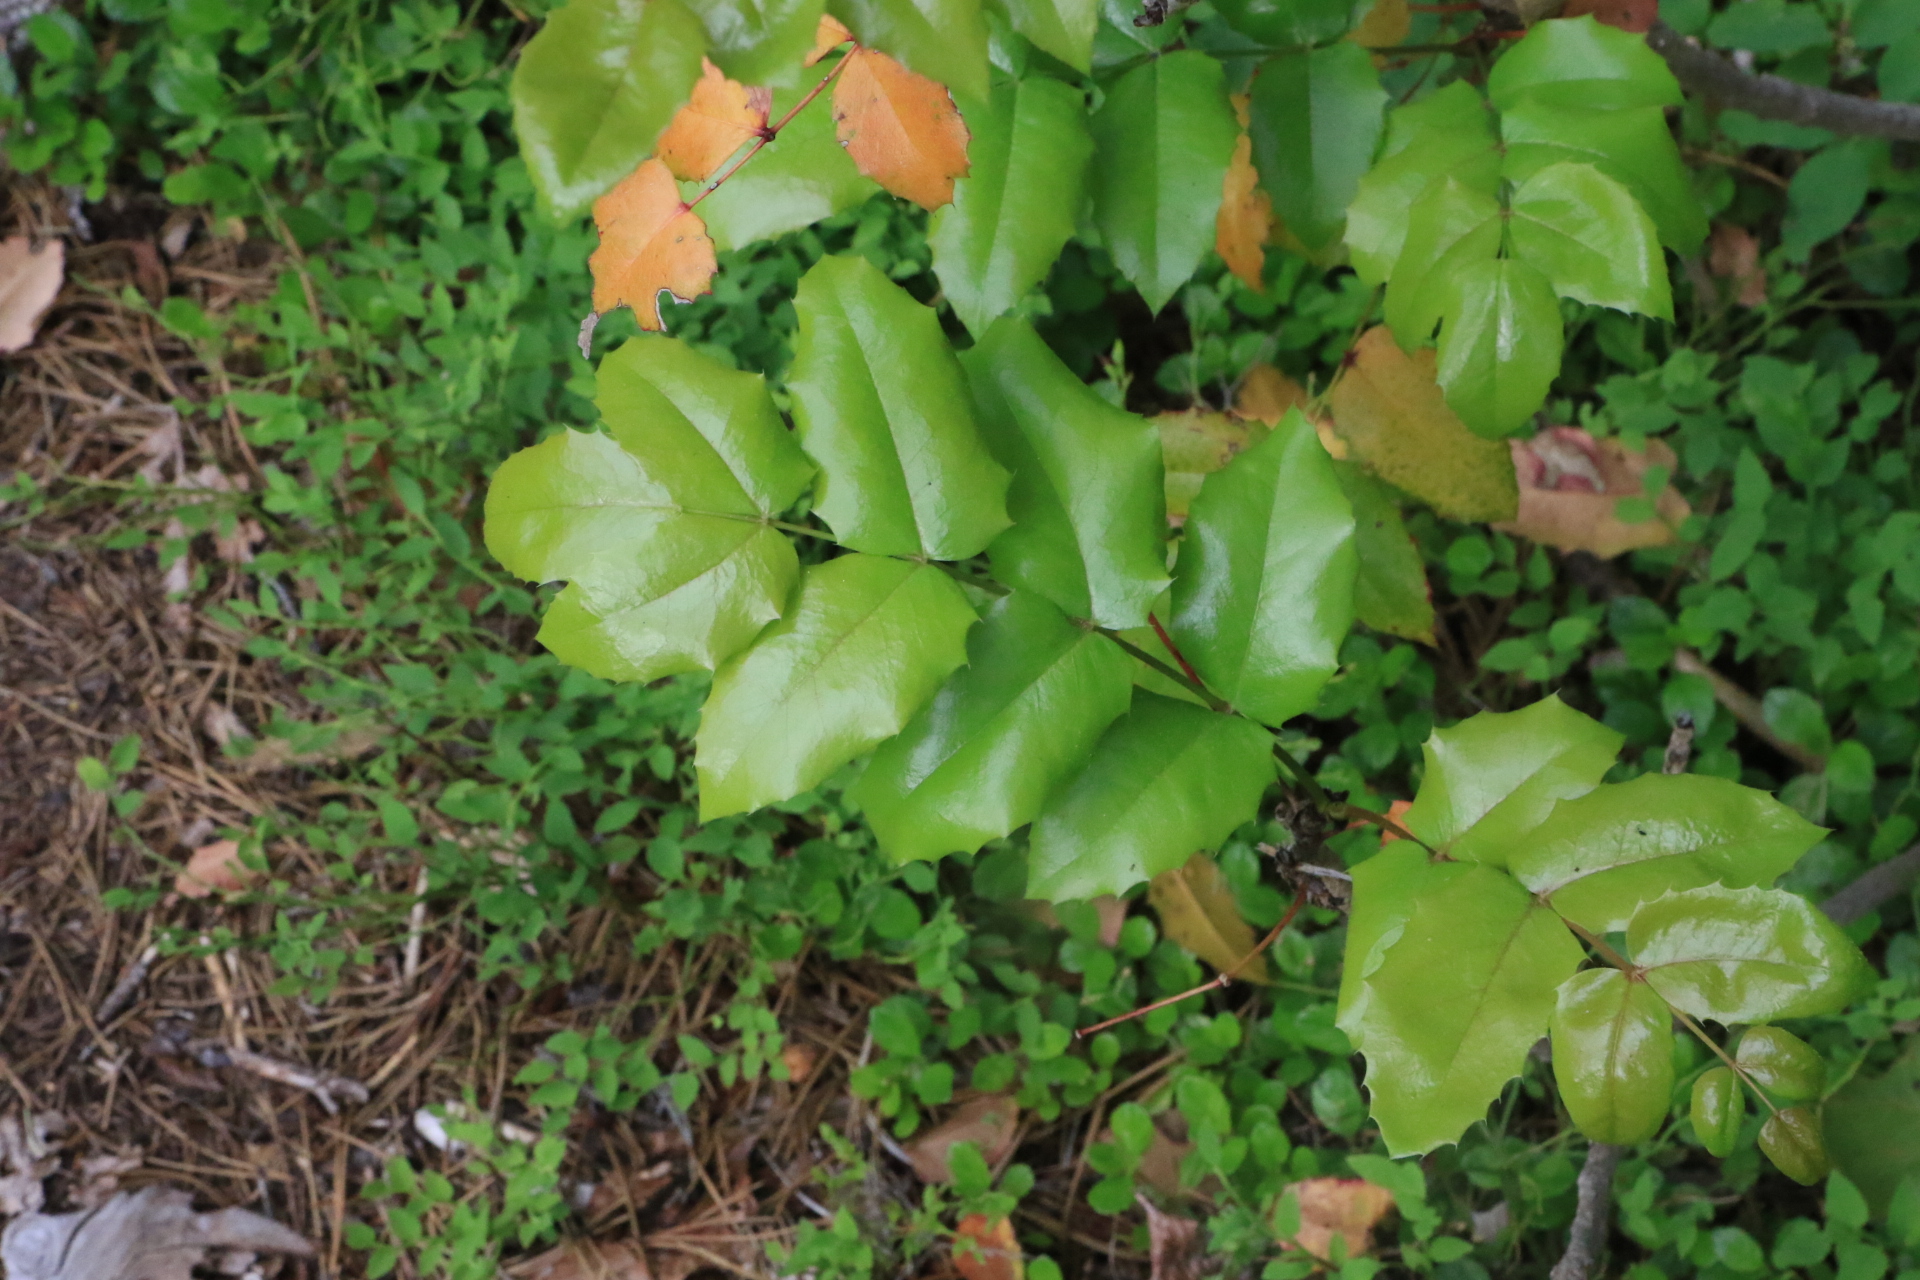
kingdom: Plantae
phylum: Tracheophyta
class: Magnoliopsida
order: Ranunculales
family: Berberidaceae
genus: Mahonia
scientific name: Mahonia aquifolium
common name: Oregon-grape
